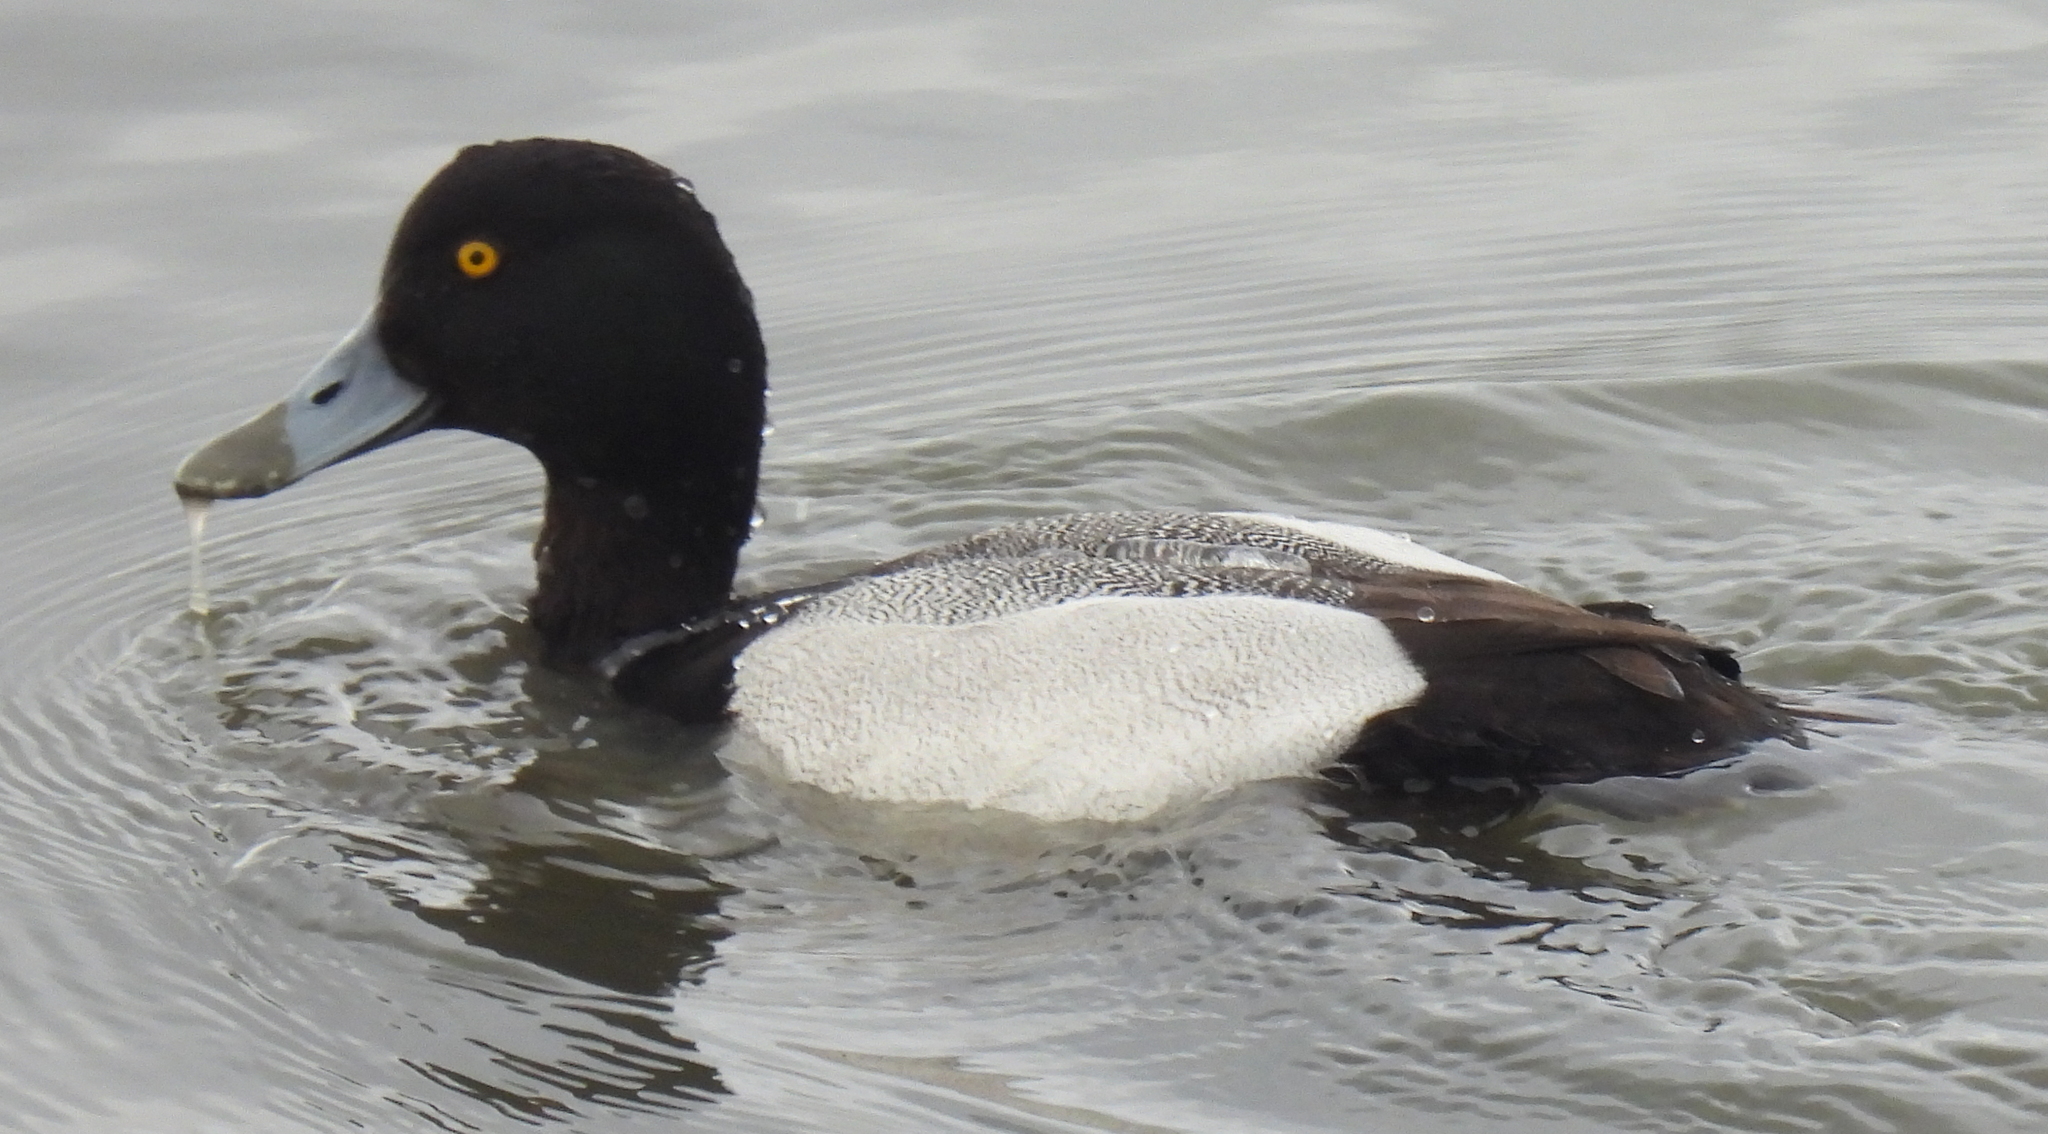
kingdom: Animalia
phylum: Chordata
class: Aves
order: Anseriformes
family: Anatidae
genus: Aythya
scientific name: Aythya marila
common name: Greater scaup
